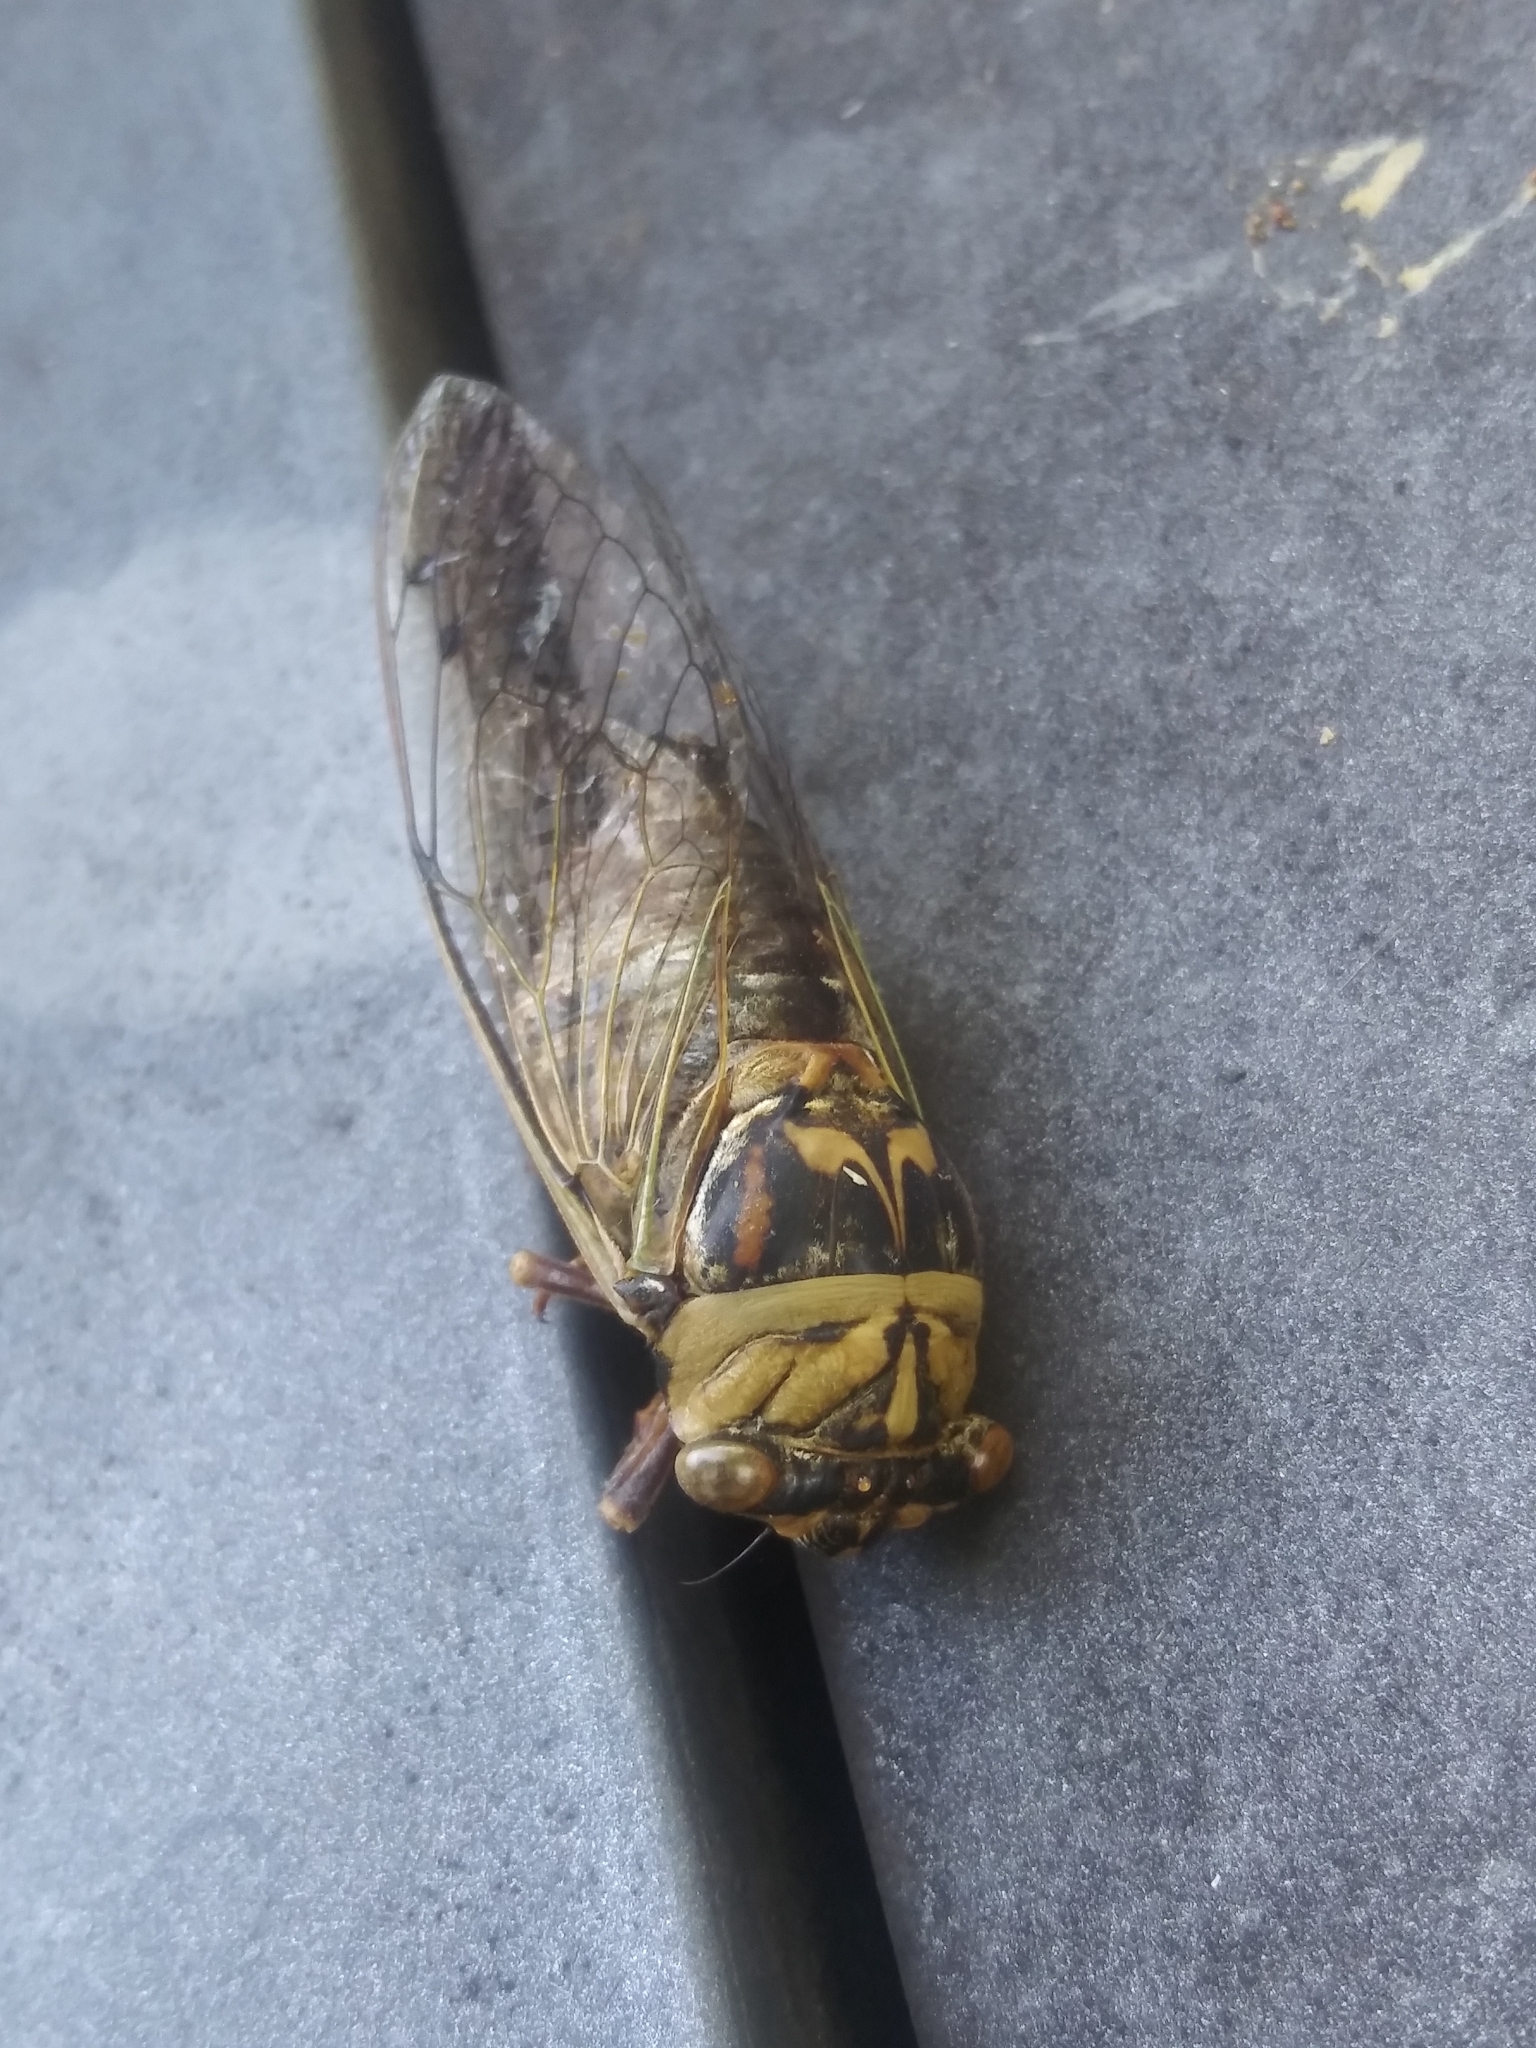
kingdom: Animalia
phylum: Arthropoda
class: Insecta
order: Hemiptera
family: Cicadidae
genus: Megatibicen
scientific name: Megatibicen resh
